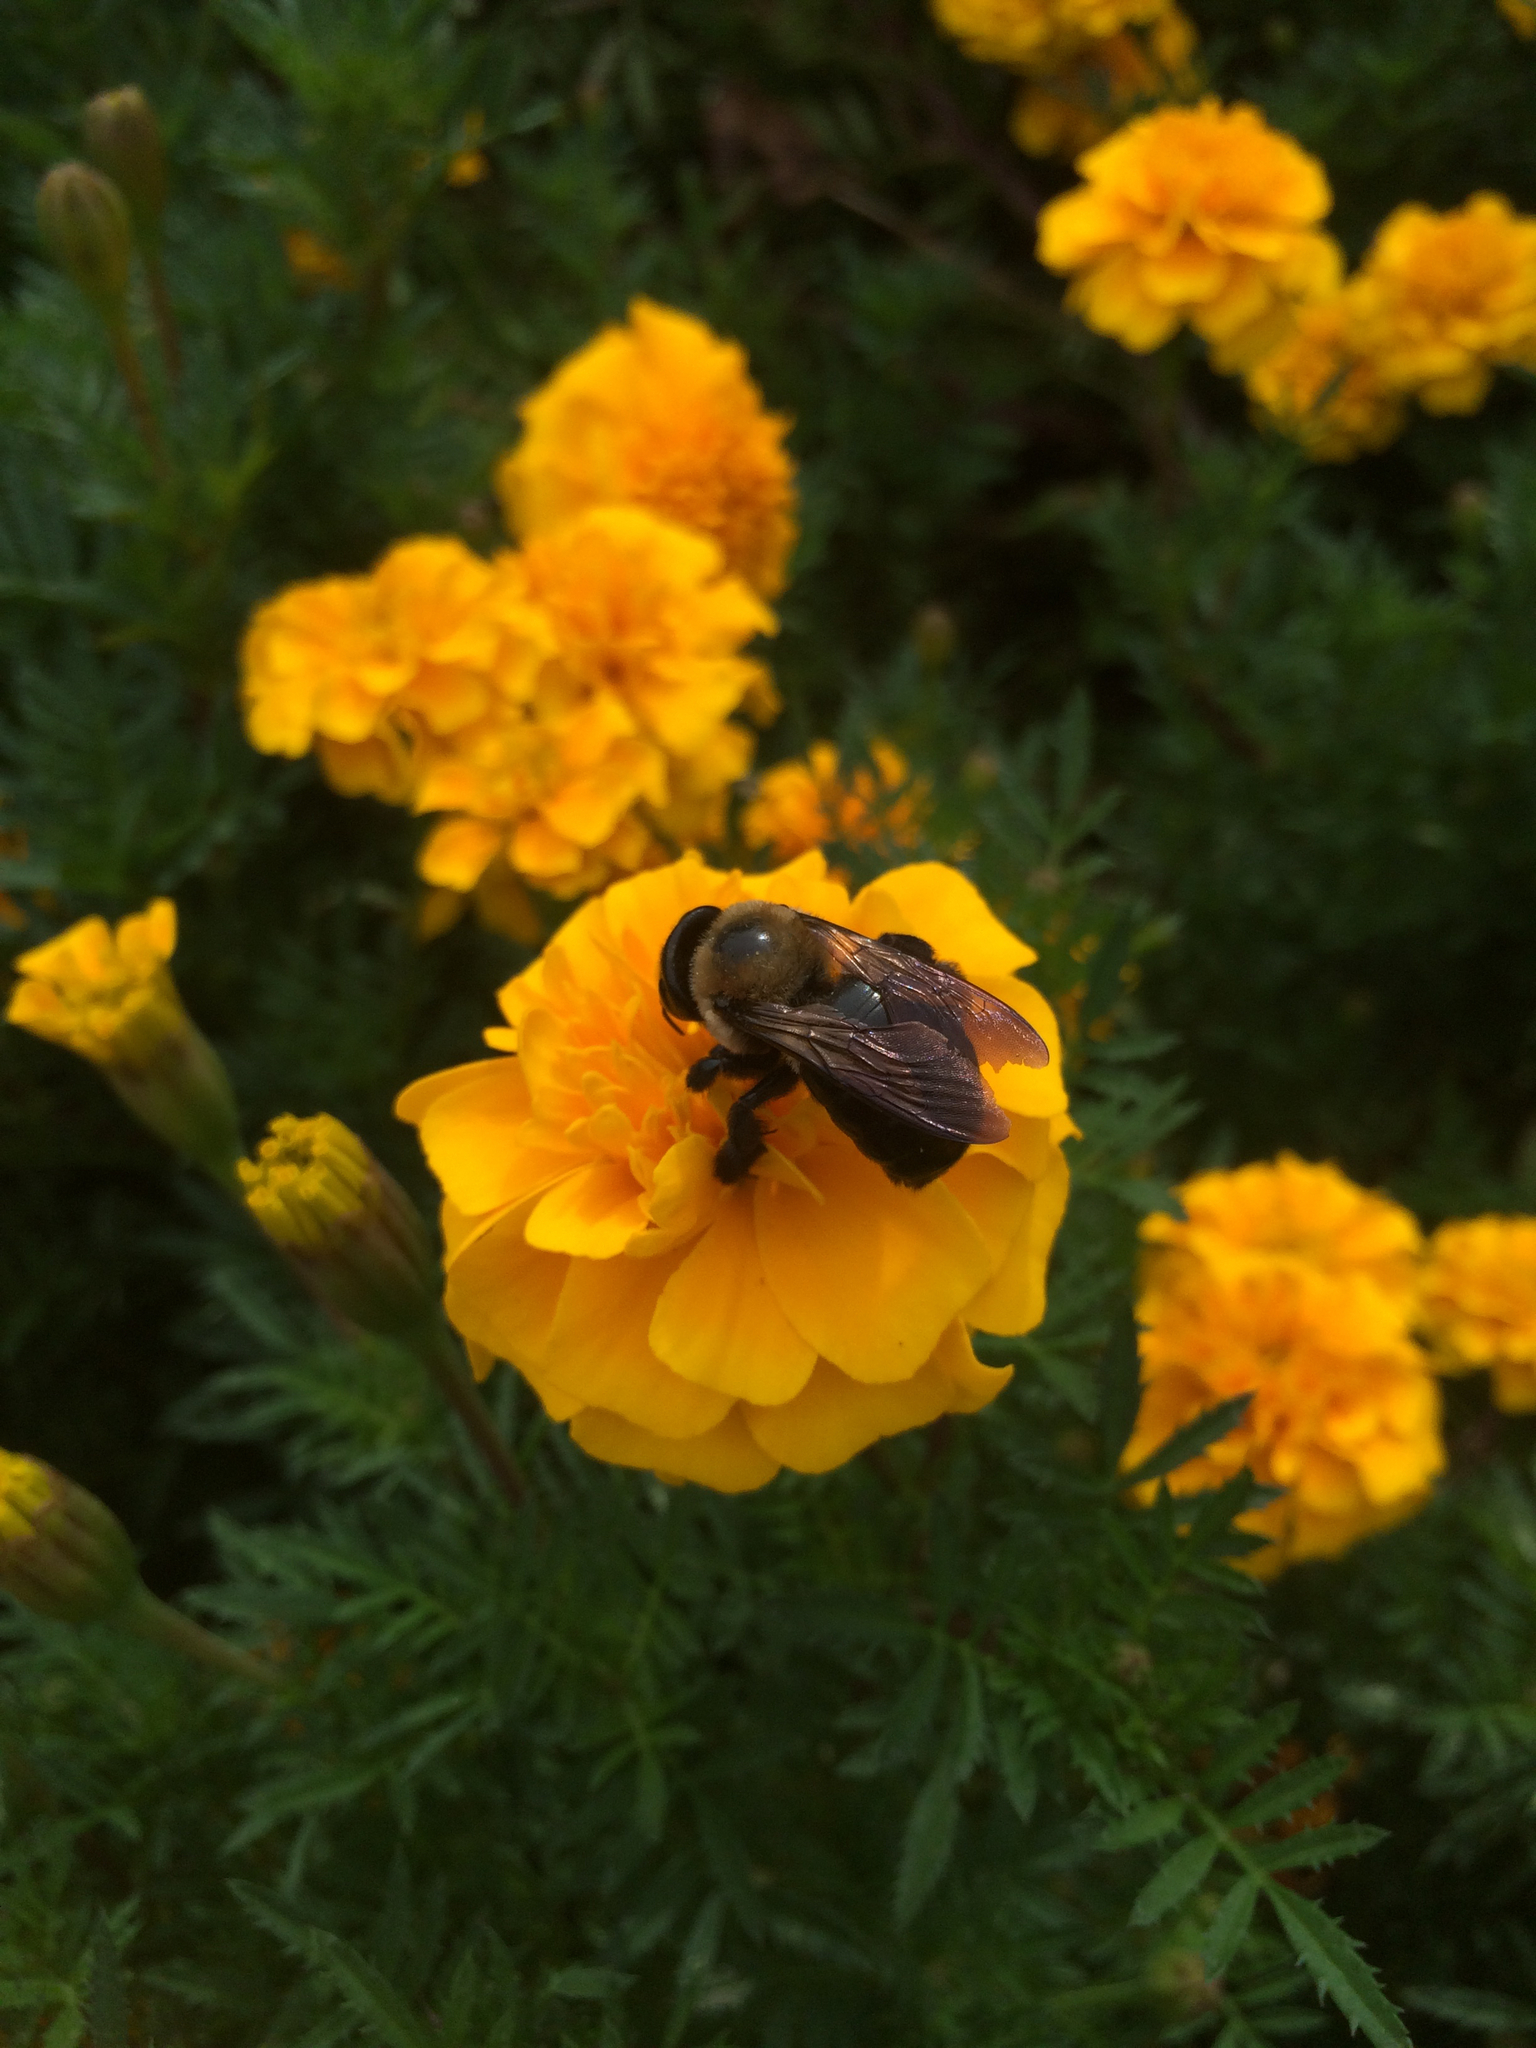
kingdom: Animalia
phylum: Arthropoda
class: Insecta
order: Hymenoptera
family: Apidae
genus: Xylocopa
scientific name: Xylocopa virginica
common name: Carpenter bee
